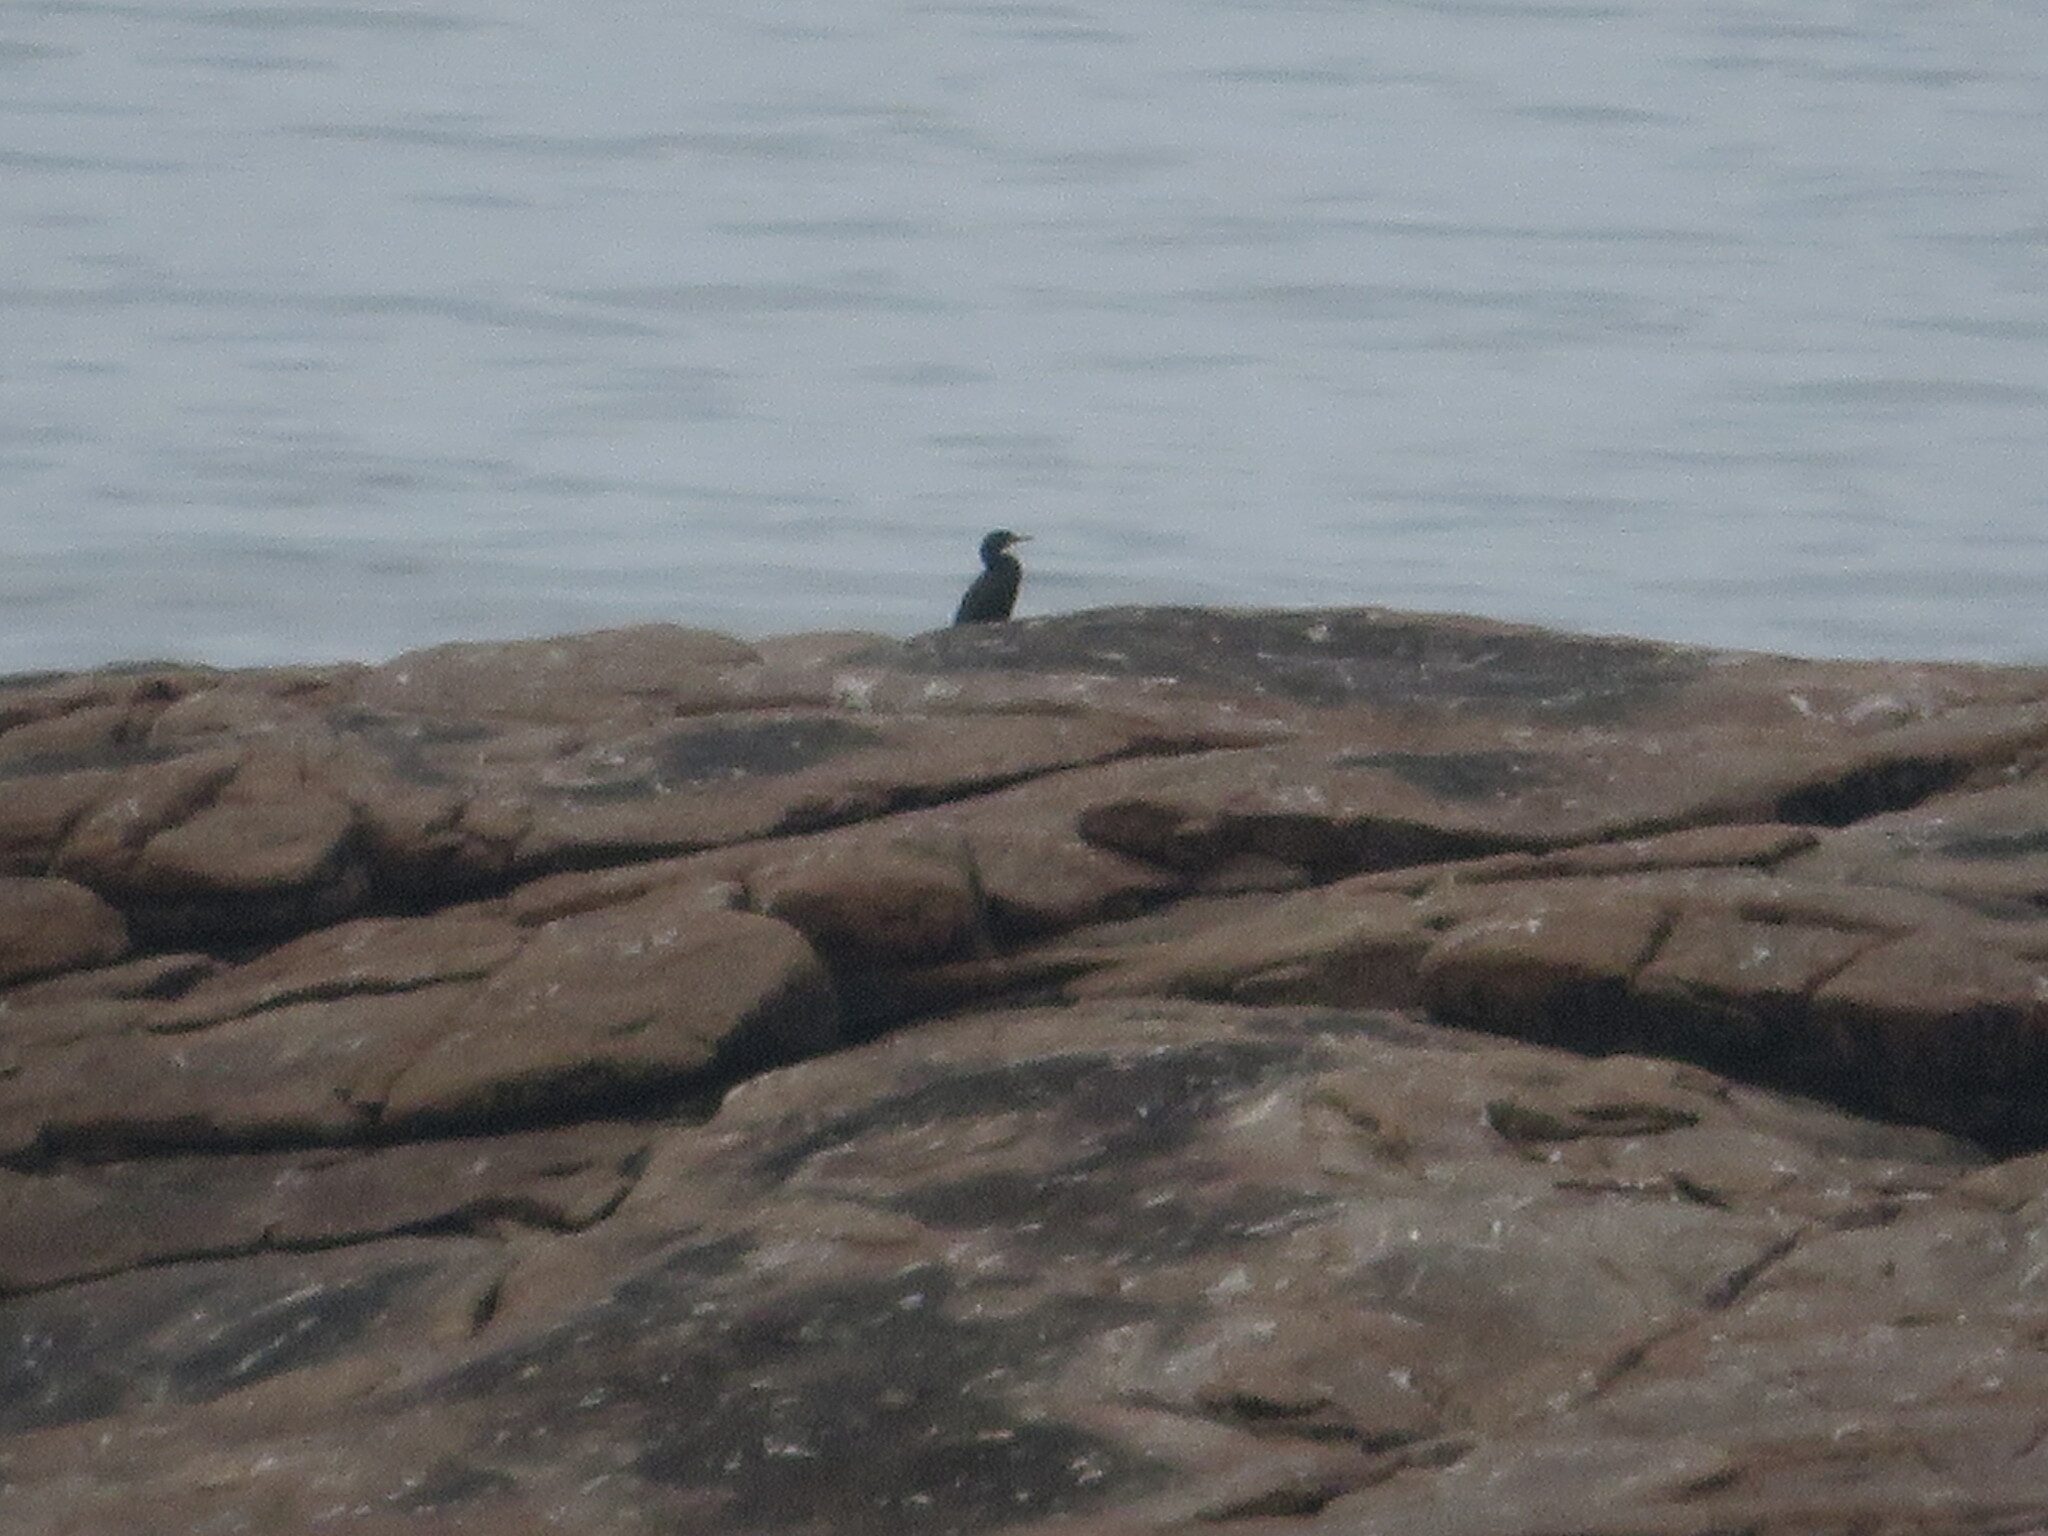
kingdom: Animalia
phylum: Chordata
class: Aves
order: Suliformes
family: Phalacrocoracidae
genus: Phalacrocorax
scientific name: Phalacrocorax aristotelis
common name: European shag
